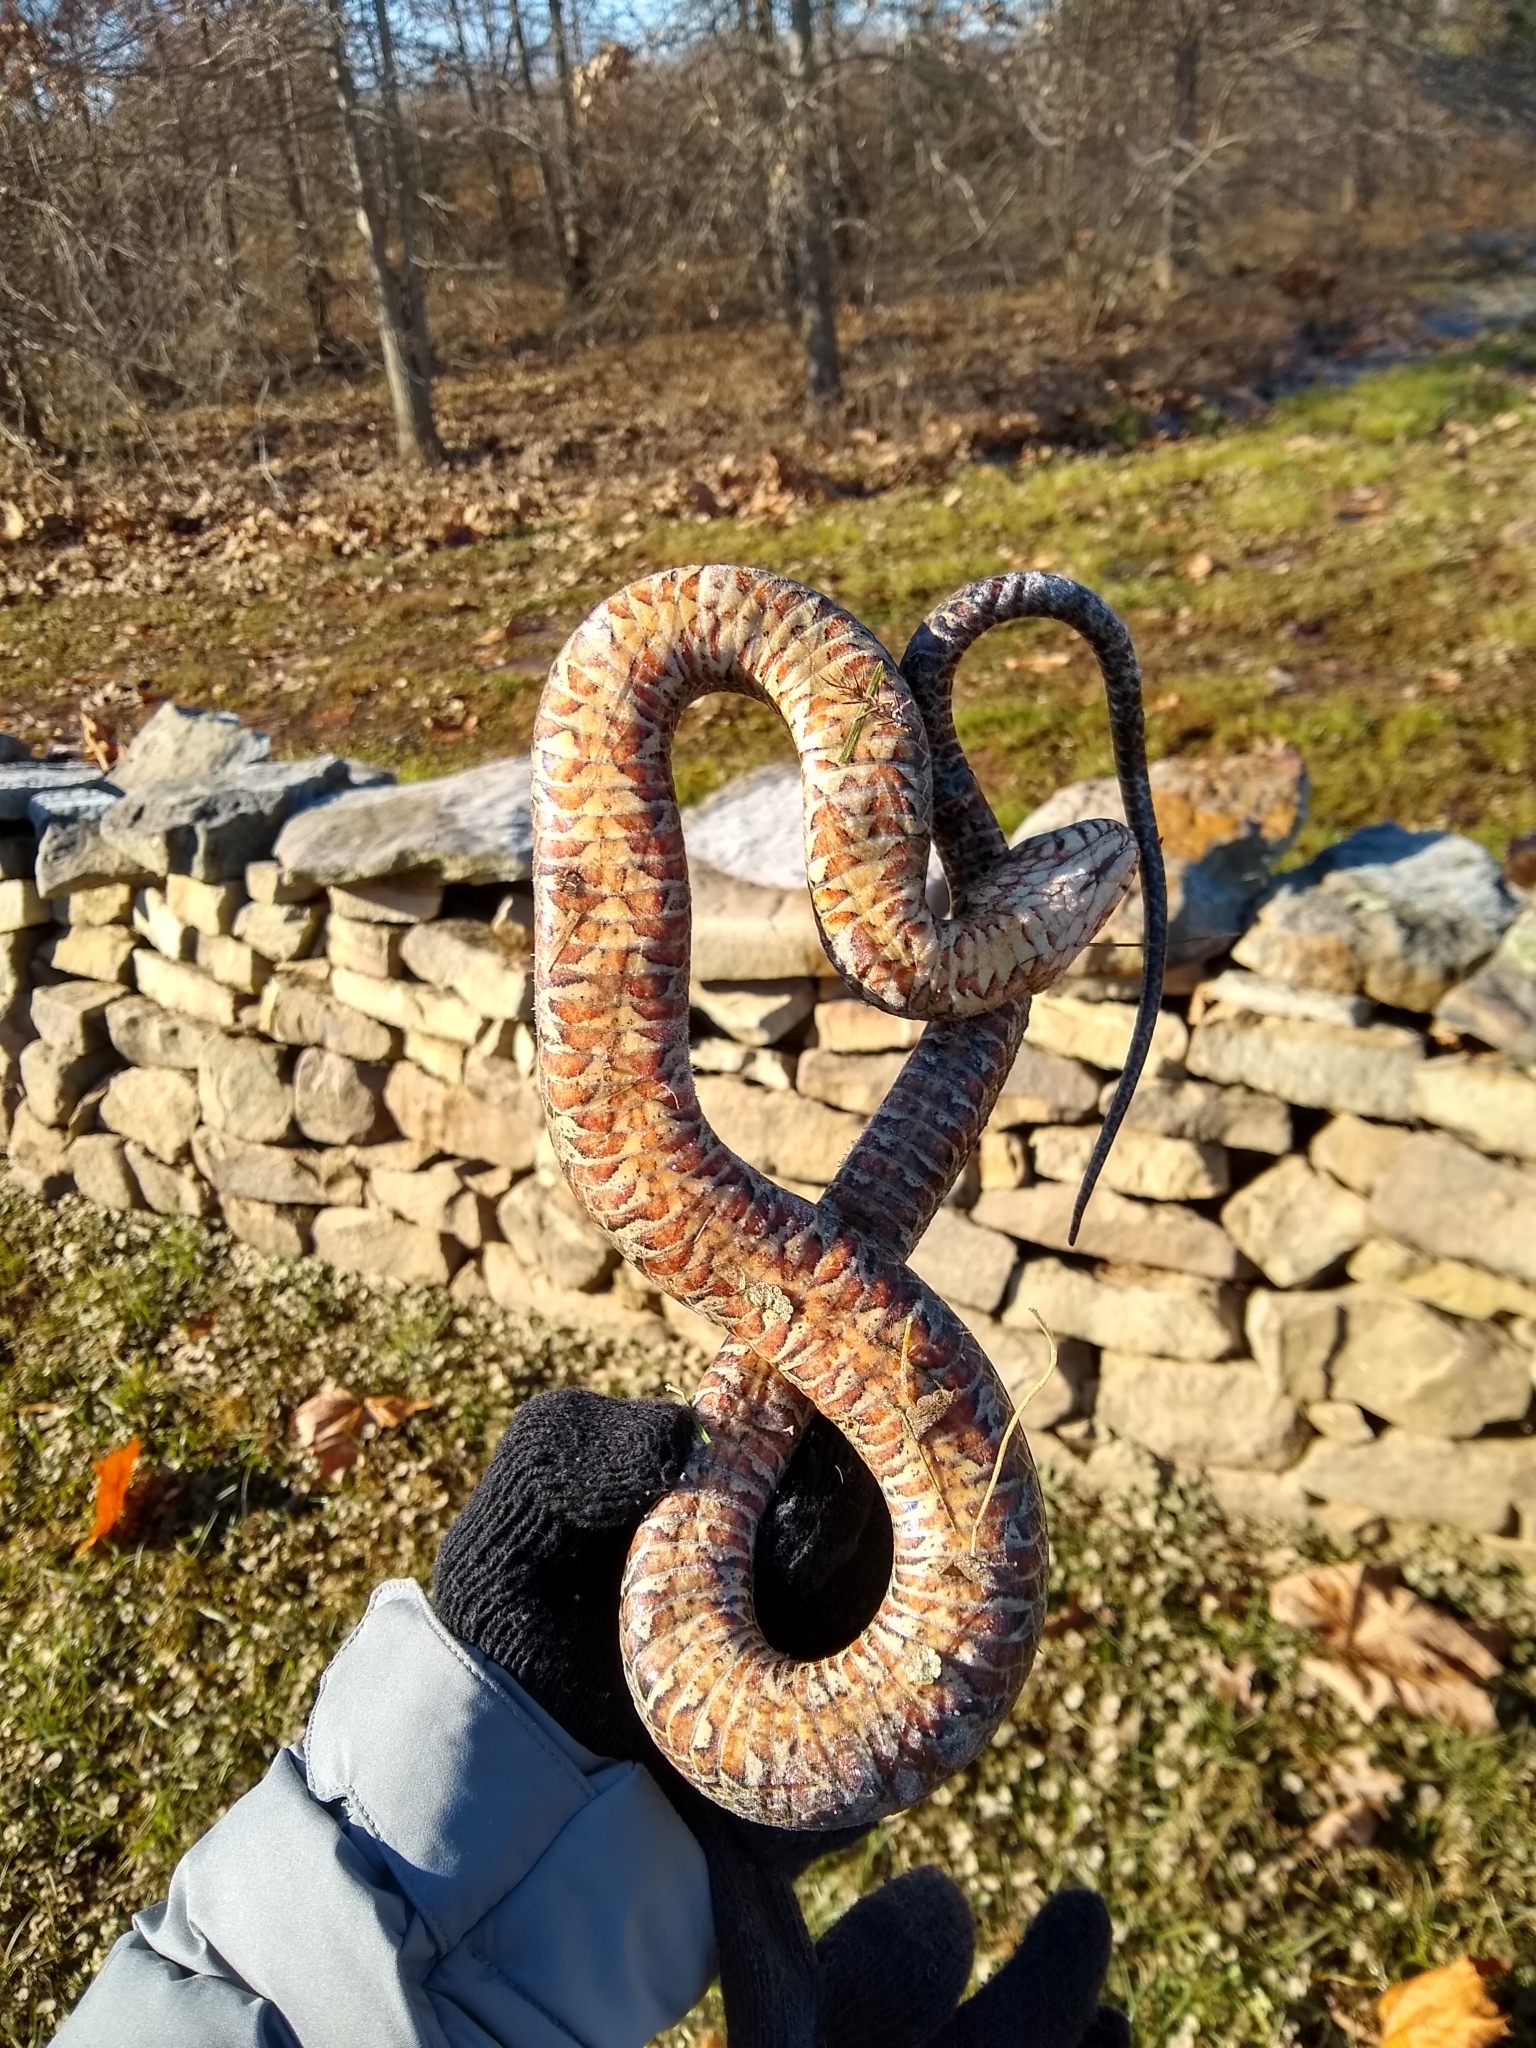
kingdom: Animalia
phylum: Chordata
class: Squamata
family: Colubridae
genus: Nerodia
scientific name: Nerodia sipedon
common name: Northern water snake
